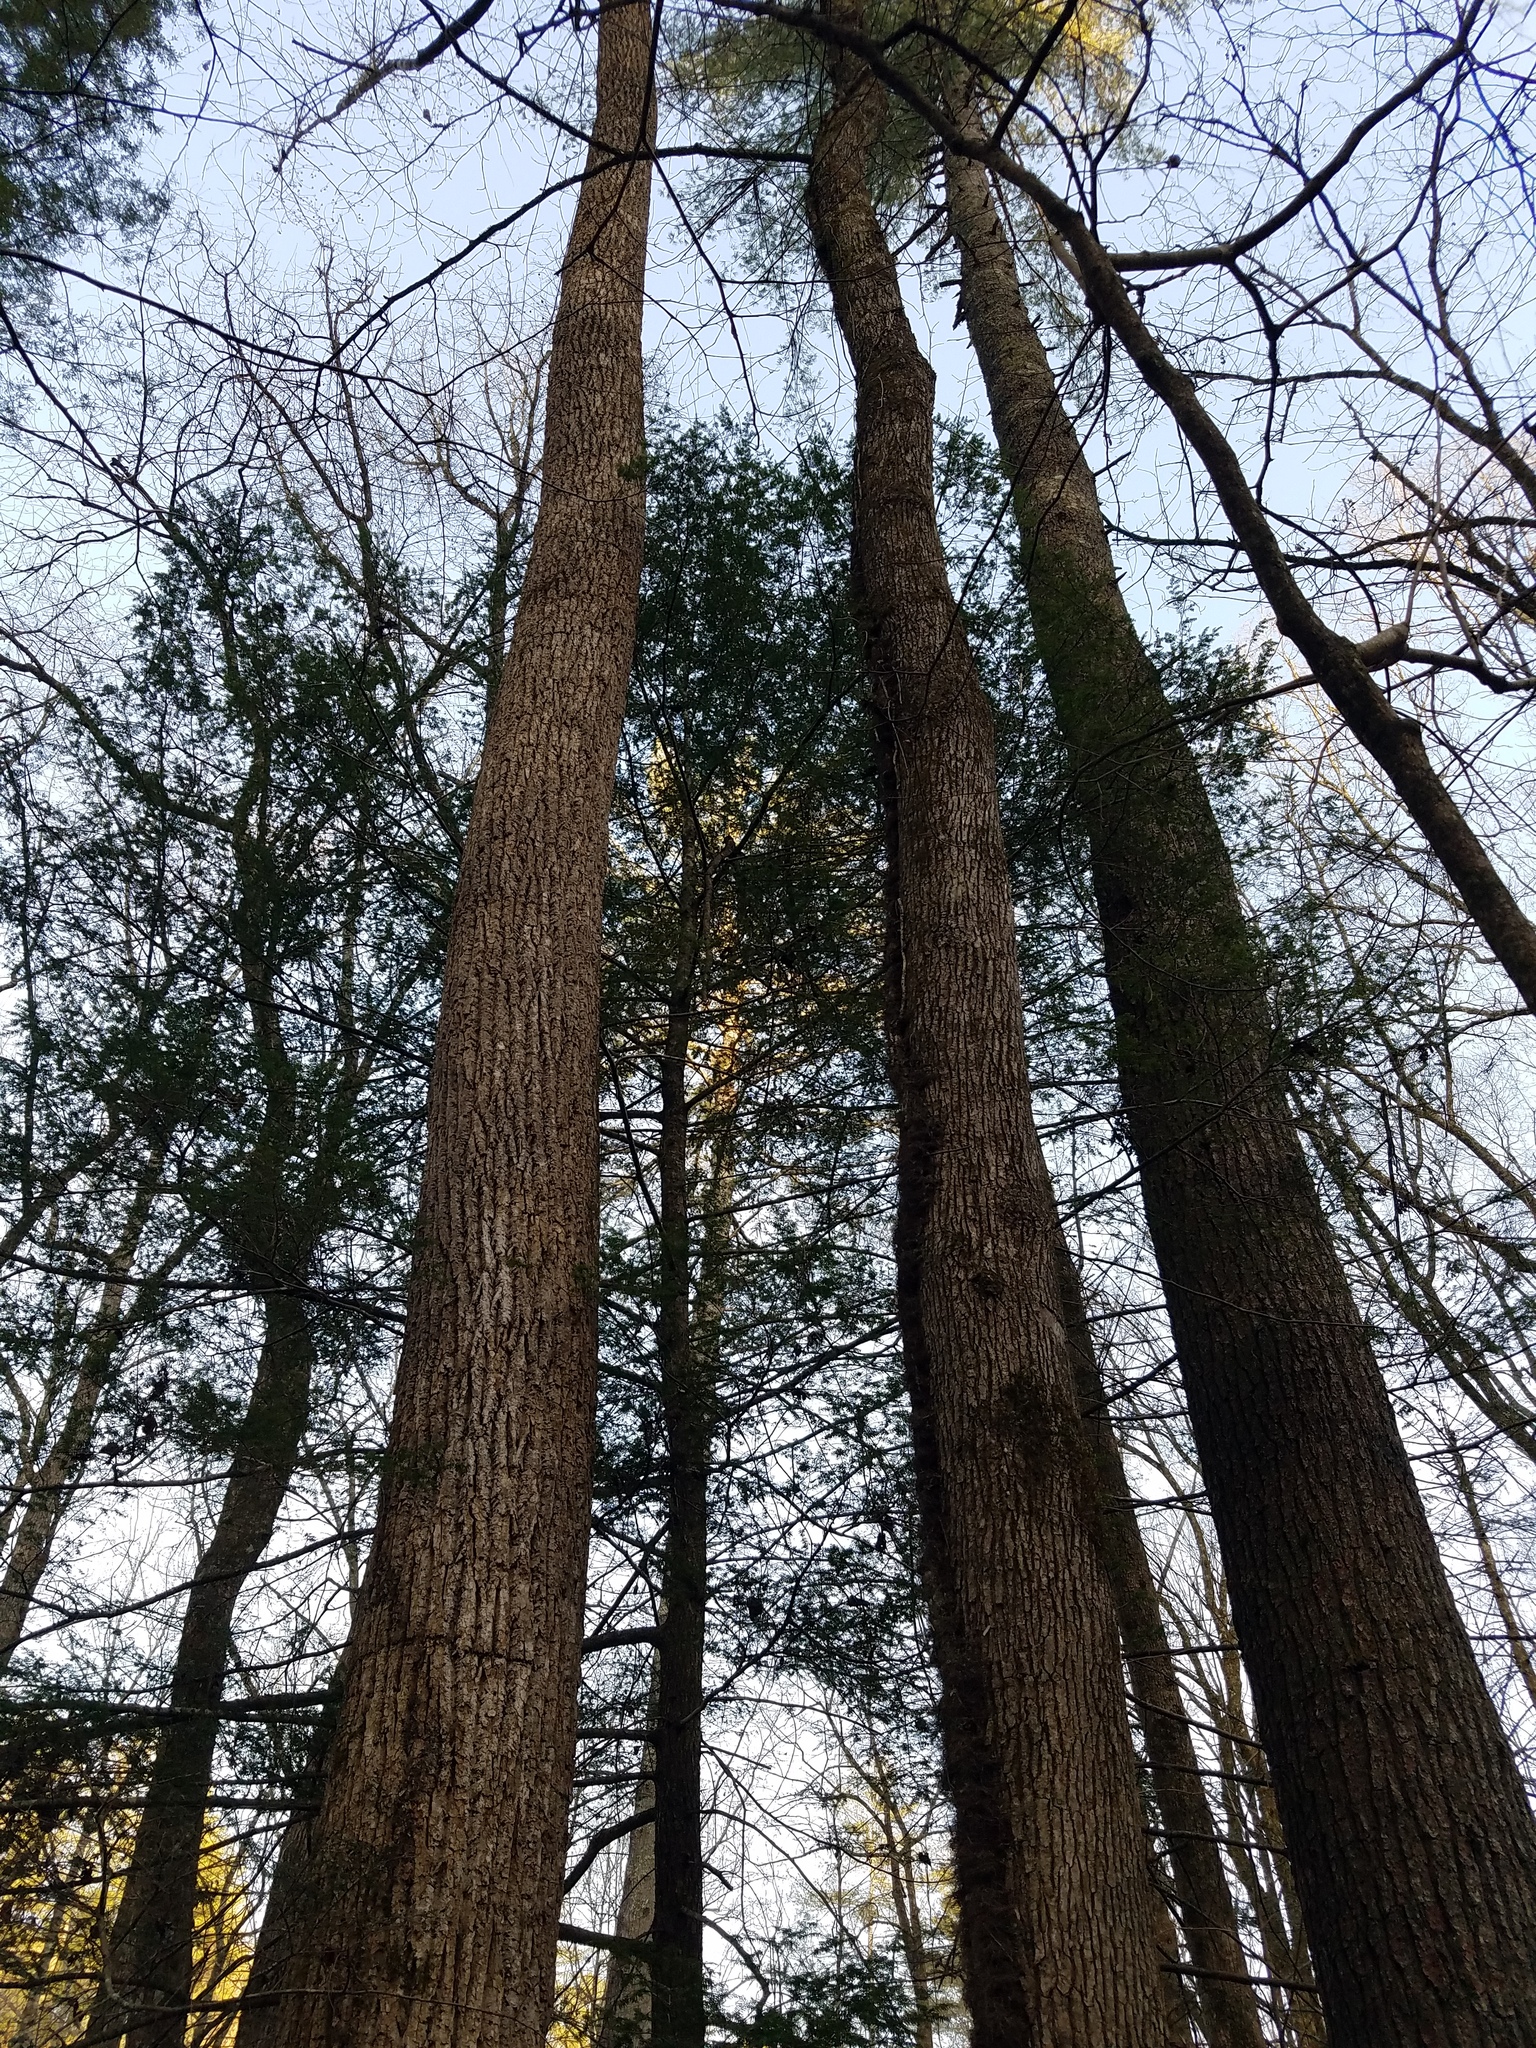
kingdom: Plantae
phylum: Tracheophyta
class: Pinopsida
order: Pinales
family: Pinaceae
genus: Tsuga
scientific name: Tsuga canadensis
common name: Eastern hemlock
